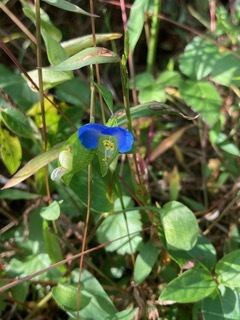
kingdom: Plantae
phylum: Tracheophyta
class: Liliopsida
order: Commelinales
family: Commelinaceae
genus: Commelina
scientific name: Commelina communis
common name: Asiatic dayflower
